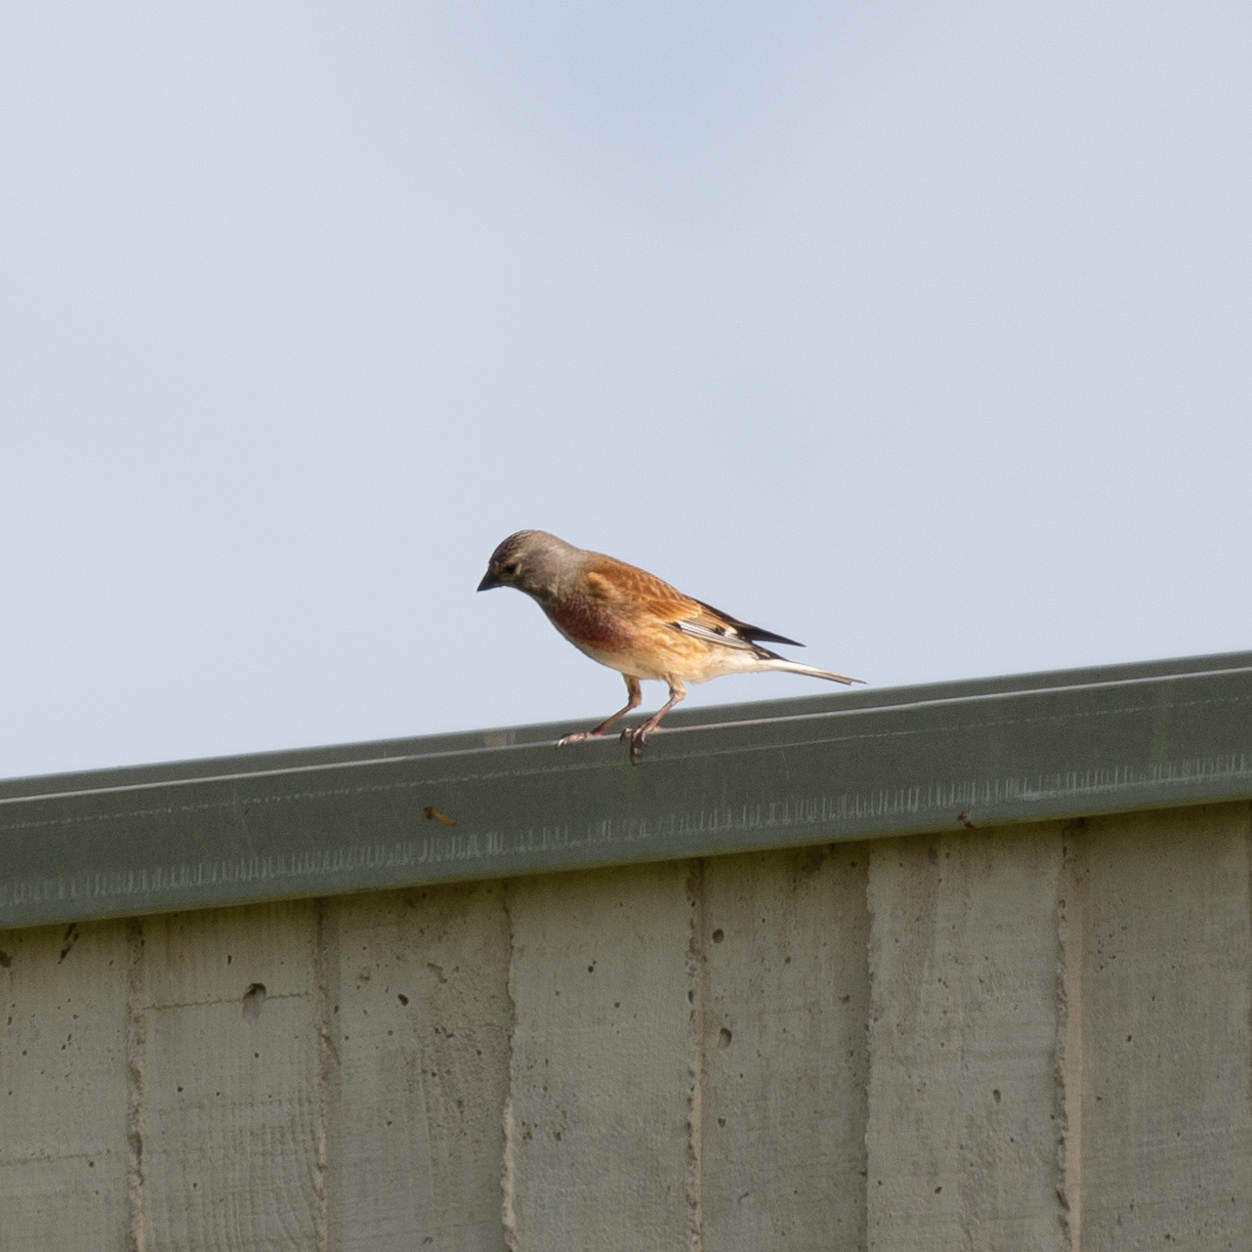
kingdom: Animalia
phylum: Chordata
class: Aves
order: Passeriformes
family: Fringillidae
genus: Linaria
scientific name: Linaria cannabina
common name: Common linnet
